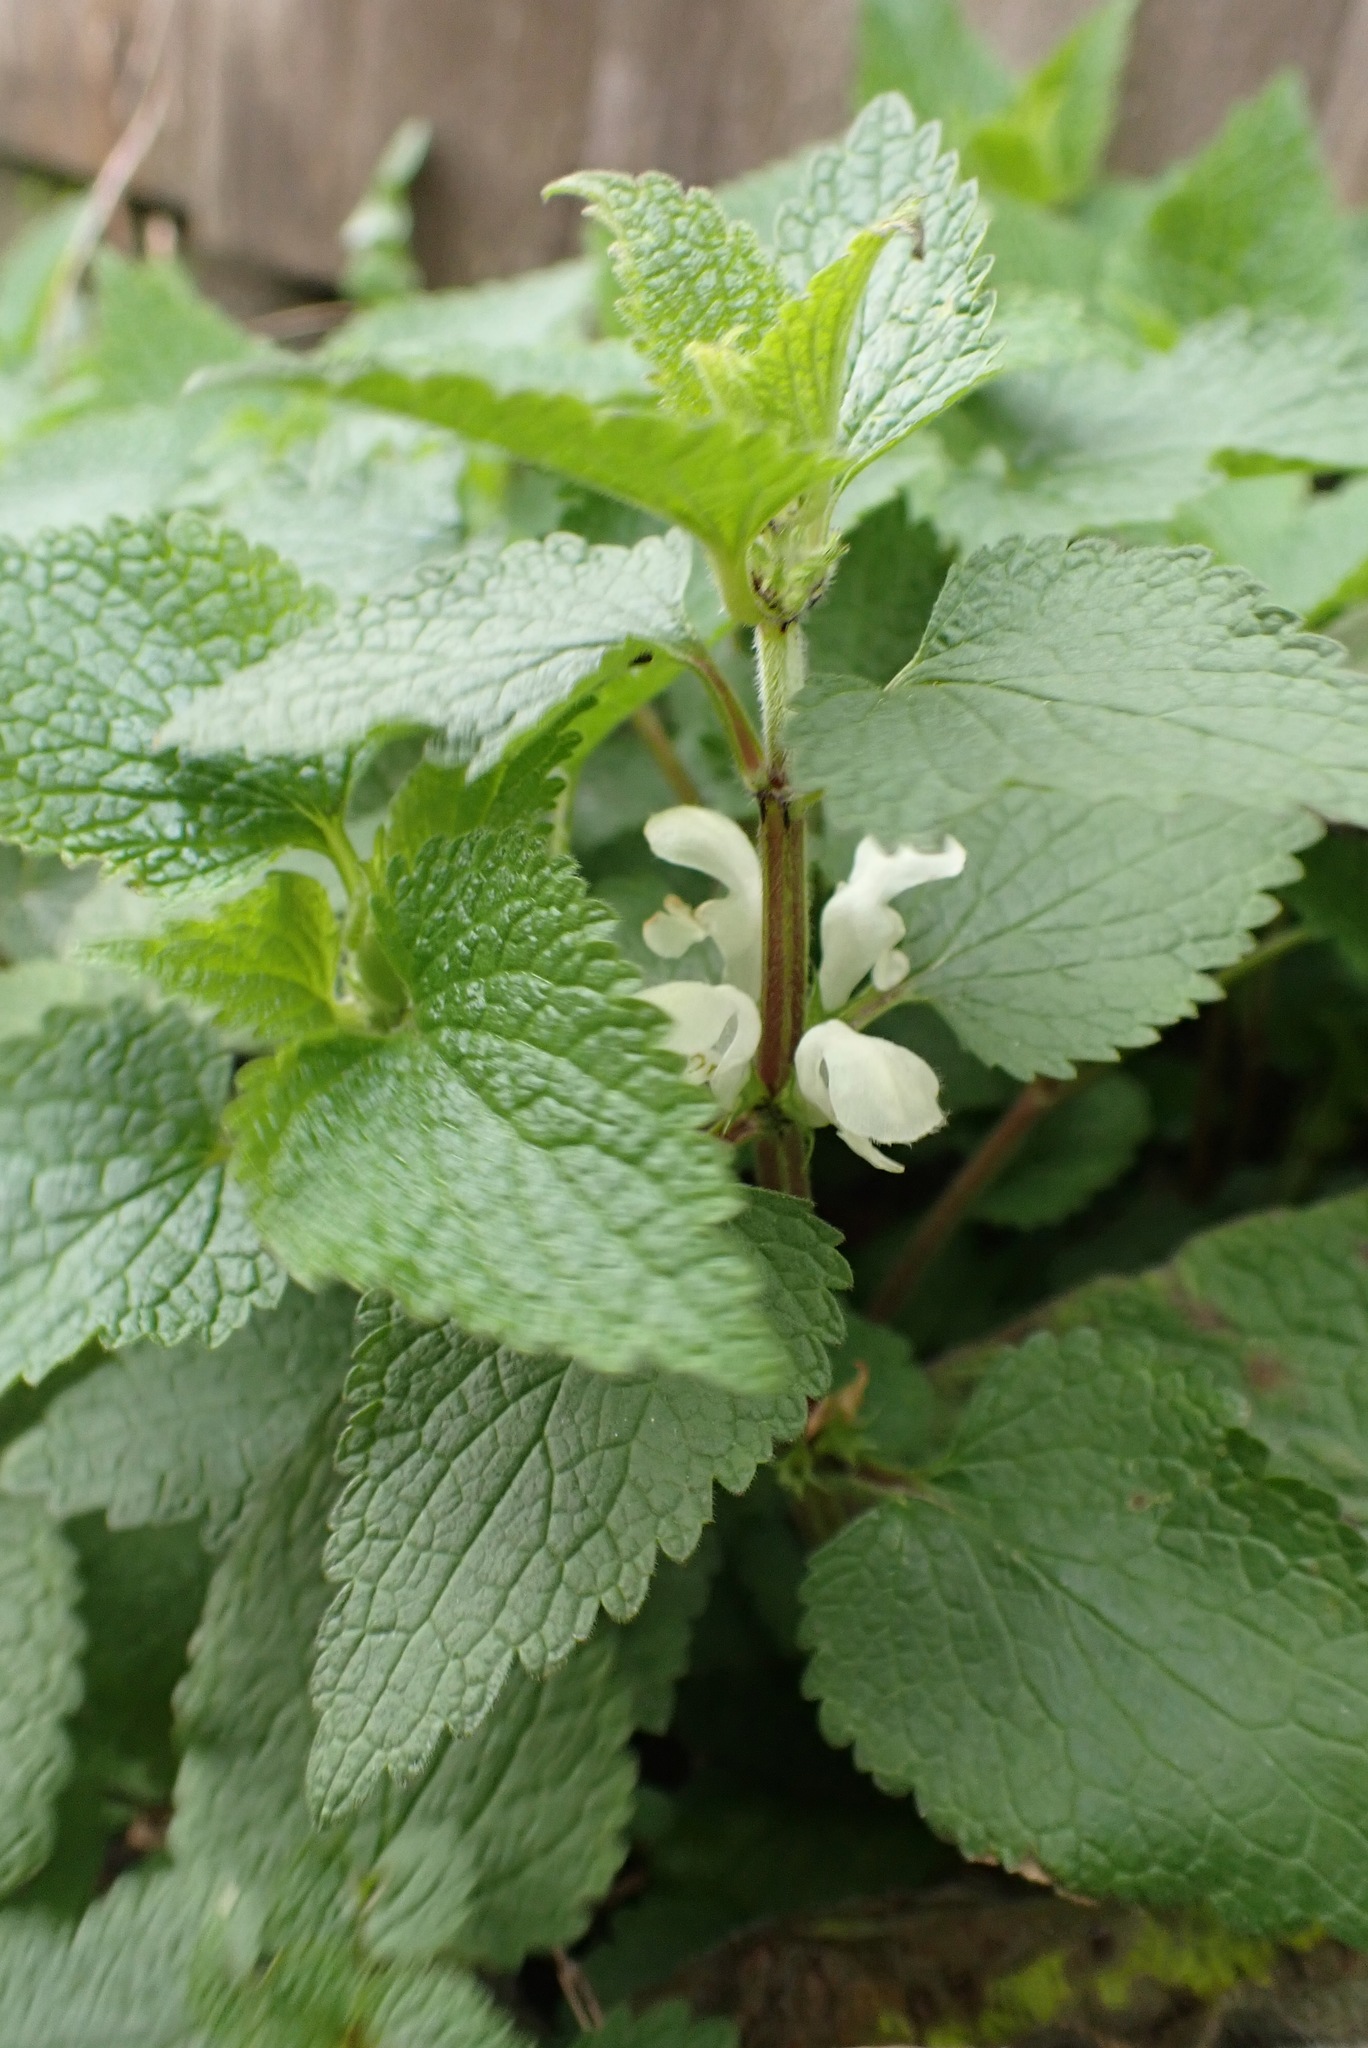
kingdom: Plantae
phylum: Tracheophyta
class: Magnoliopsida
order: Lamiales
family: Lamiaceae
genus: Lamium
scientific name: Lamium album
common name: White dead-nettle
